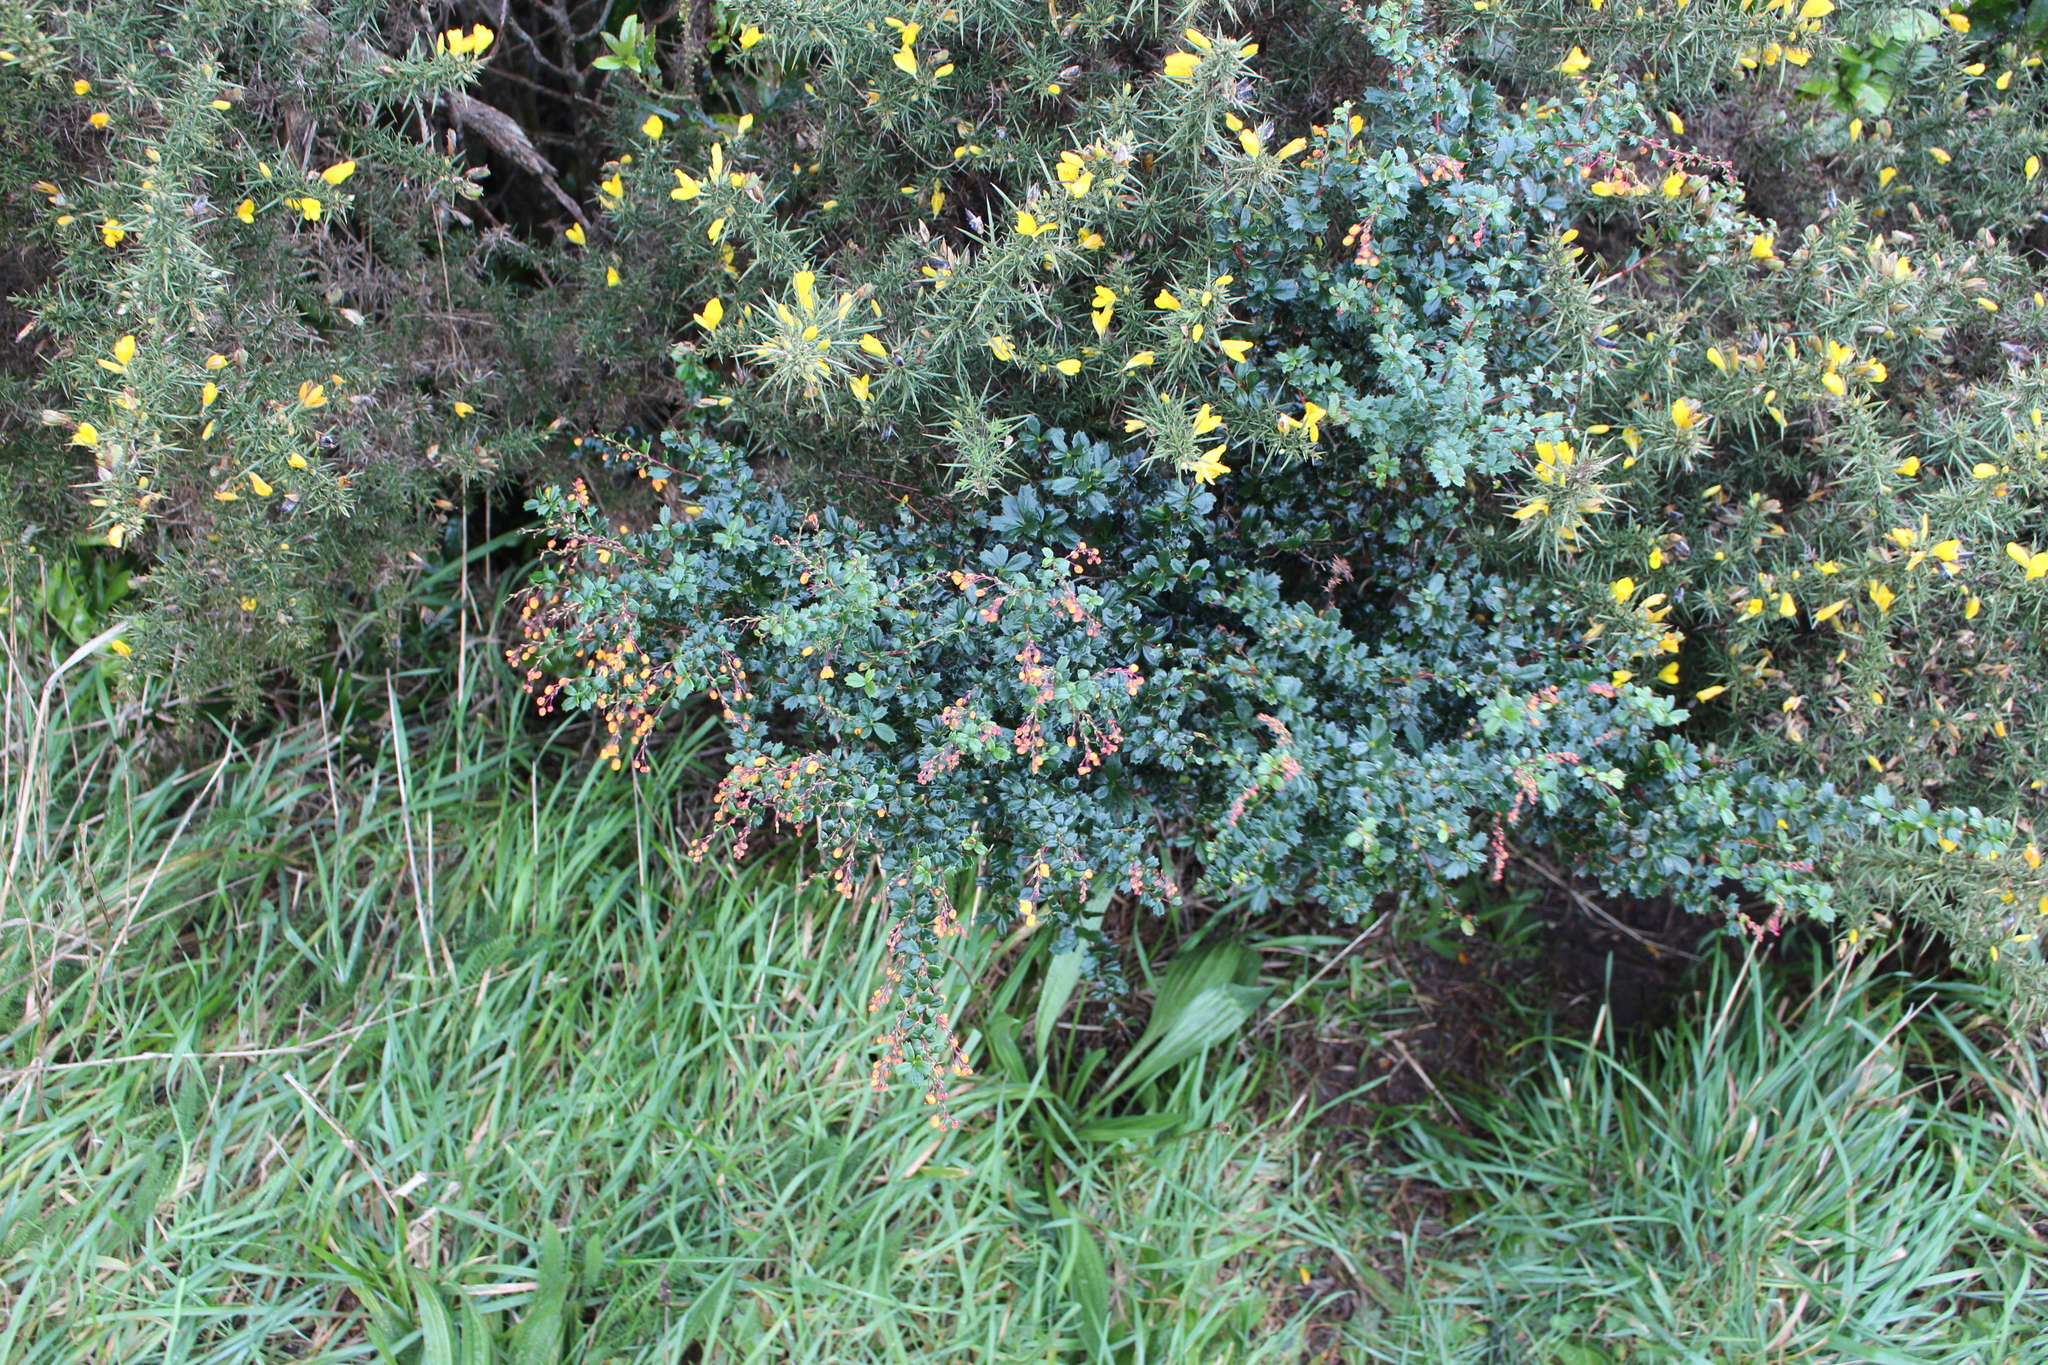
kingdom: Plantae
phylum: Tracheophyta
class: Magnoliopsida
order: Ranunculales
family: Berberidaceae
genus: Berberis
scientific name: Berberis darwinii
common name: Darwin's barberry
